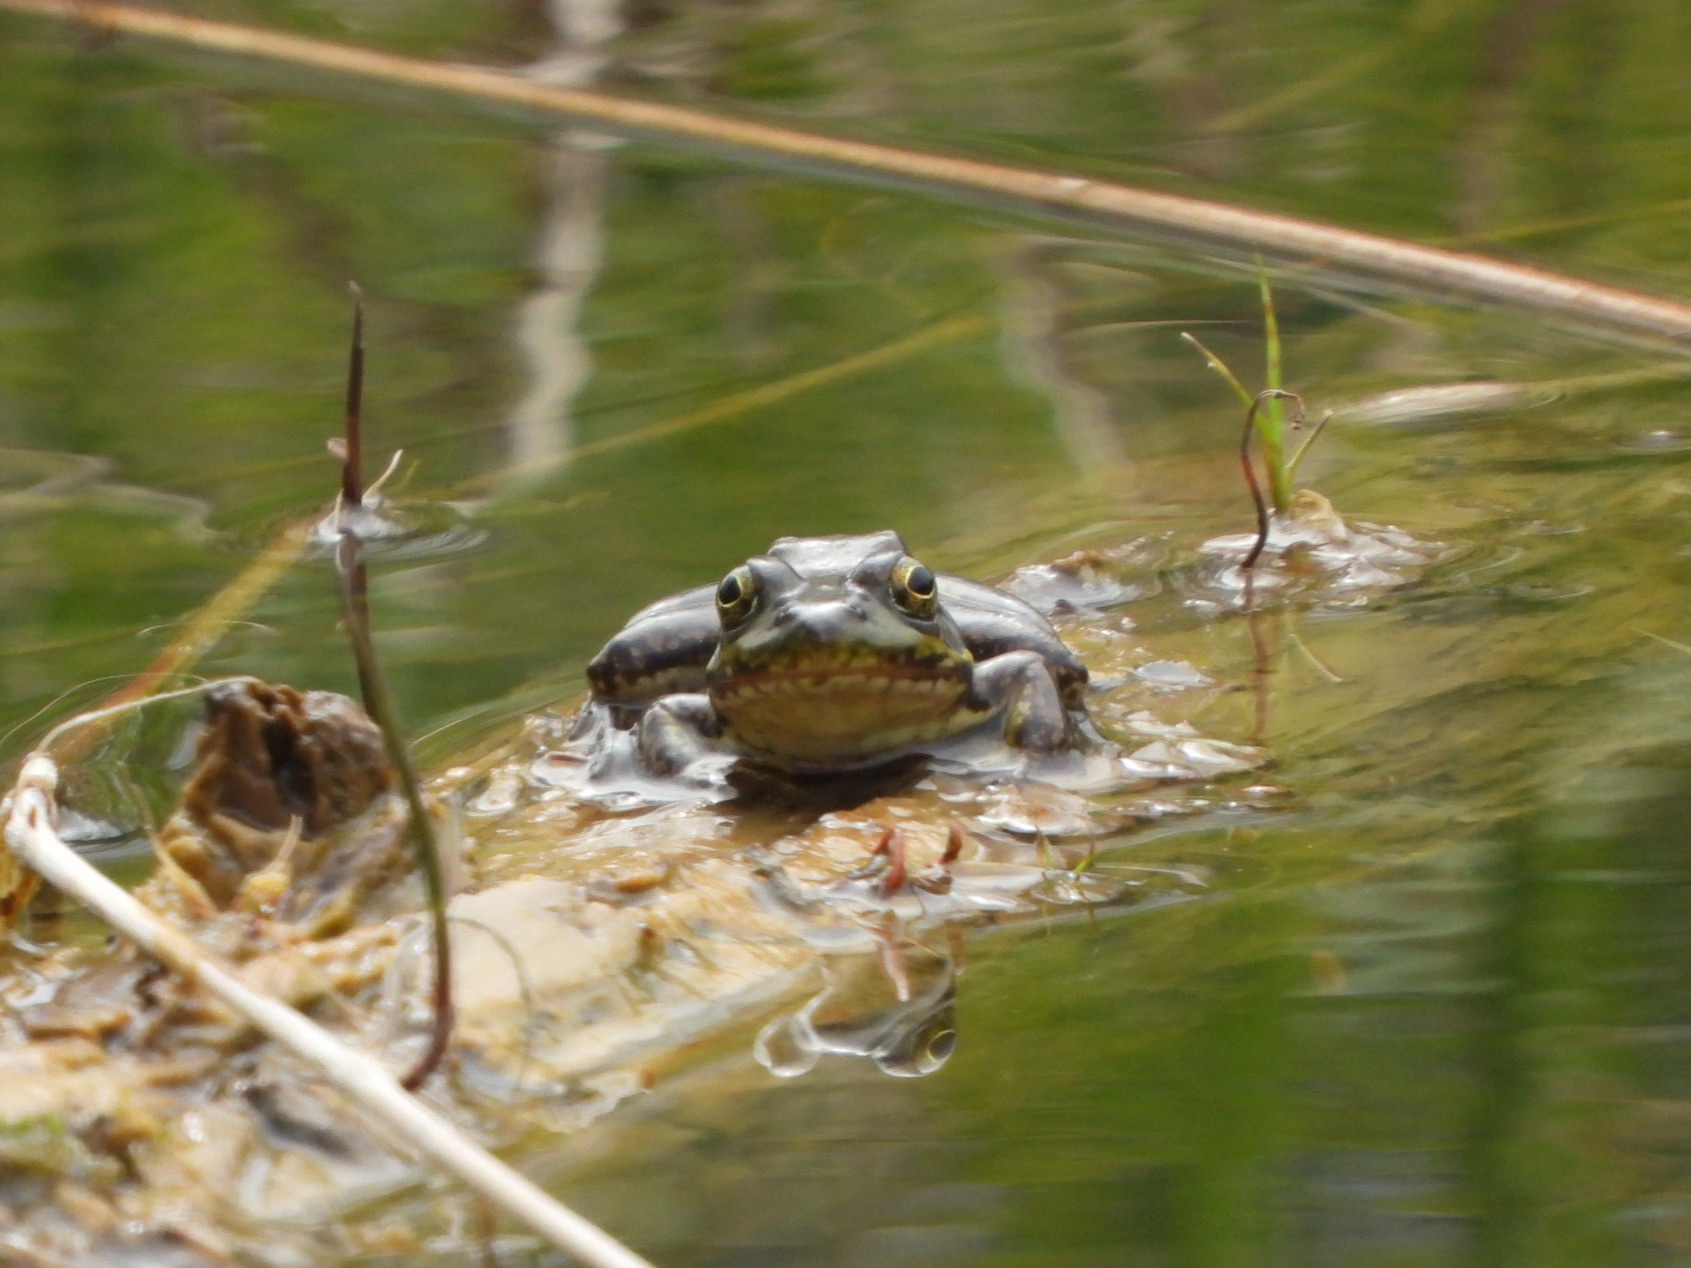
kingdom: Animalia
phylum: Chordata
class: Amphibia
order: Anura
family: Ranidae
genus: Lithobates
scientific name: Lithobates catesbeianus
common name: American bullfrog
